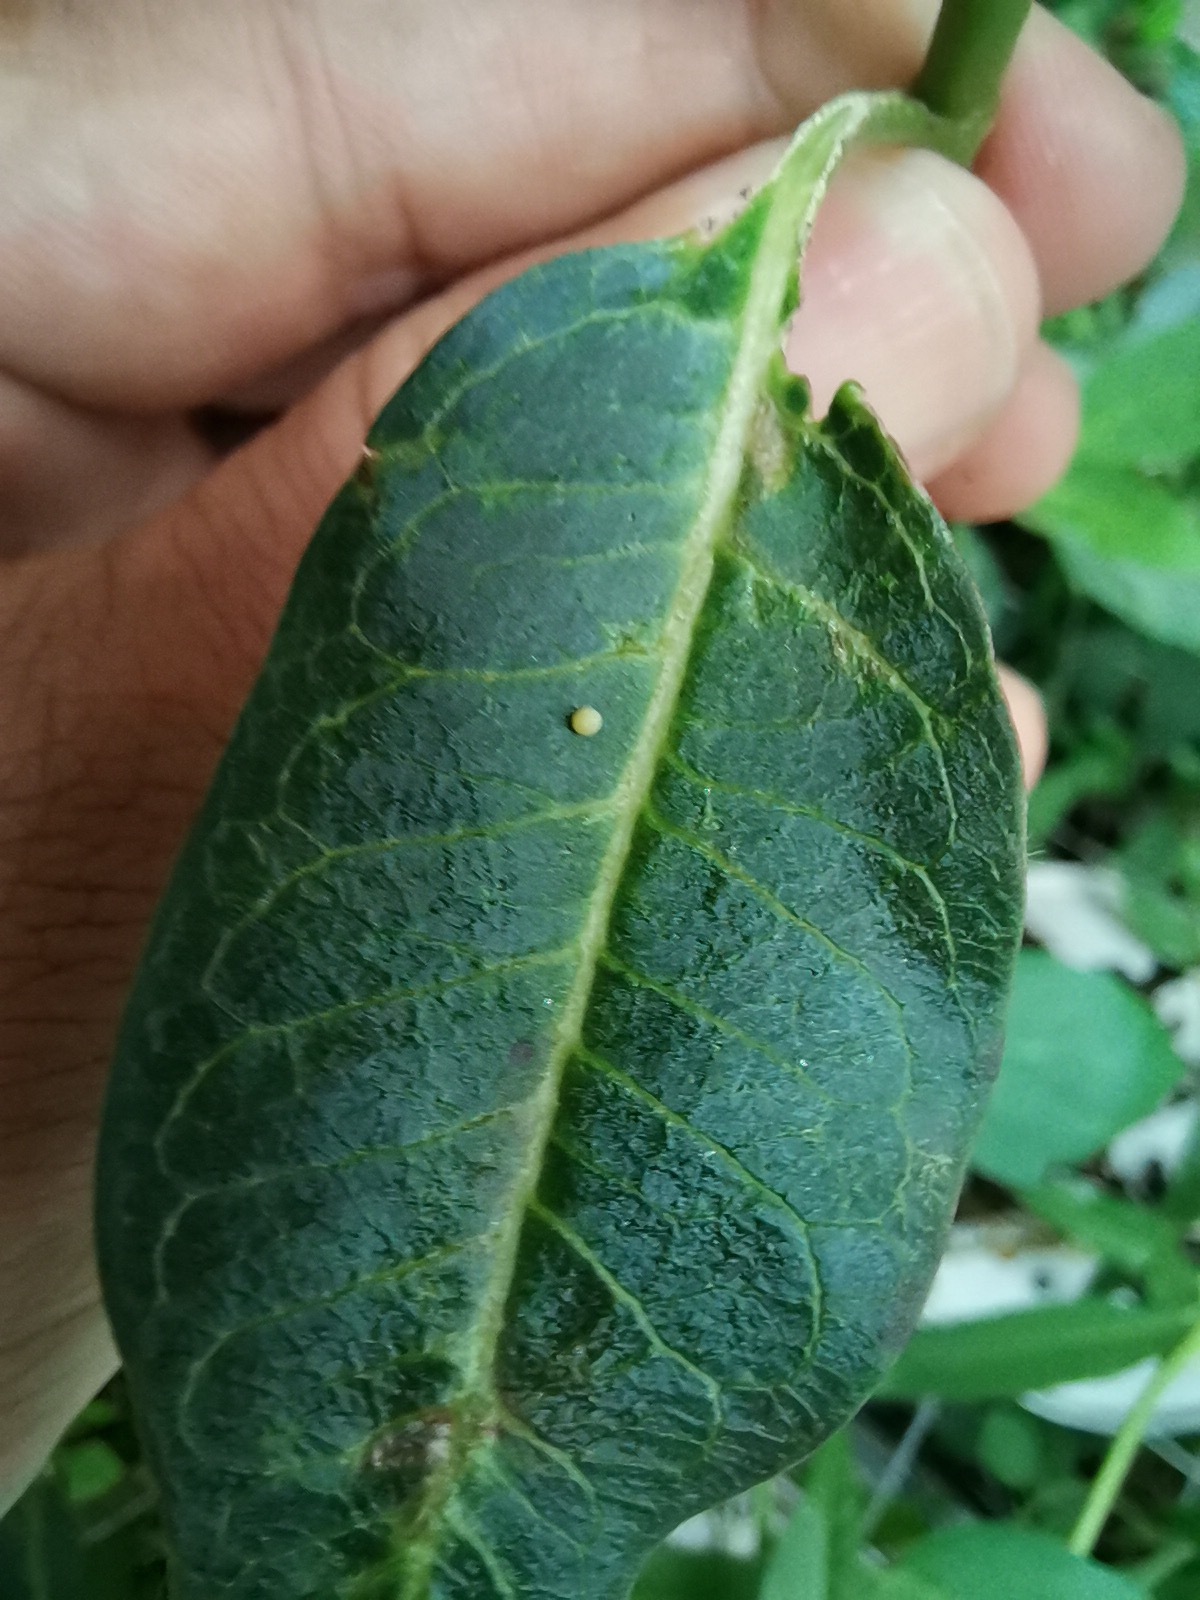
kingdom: Animalia
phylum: Arthropoda
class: Insecta
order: Lepidoptera
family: Nymphalidae
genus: Danaus
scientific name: Danaus plexippus
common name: Monarch
